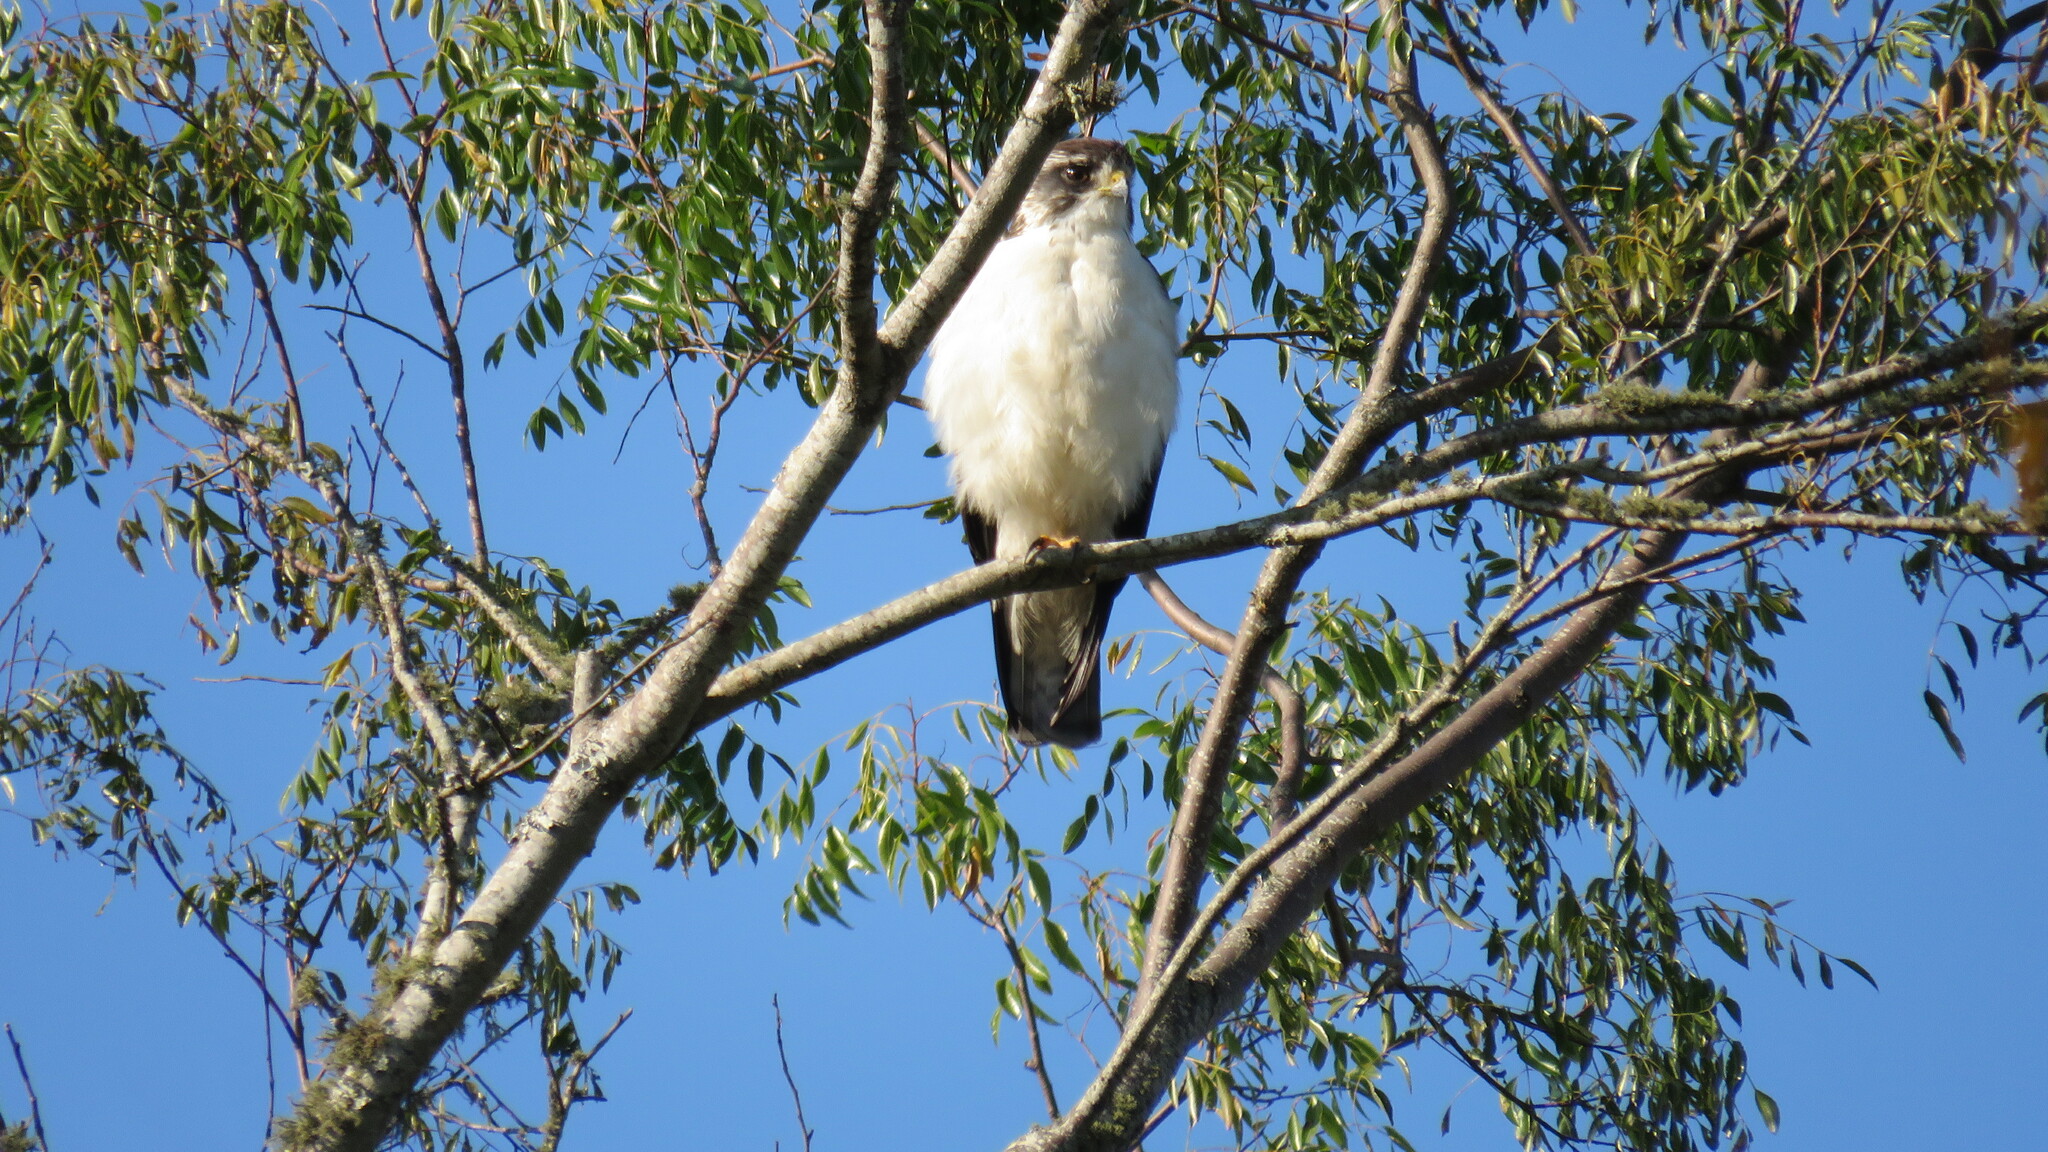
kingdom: Animalia
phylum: Chordata
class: Aves
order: Accipitriformes
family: Accipitridae
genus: Buteo
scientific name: Buteo brachyurus
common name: Short-tailed hawk
